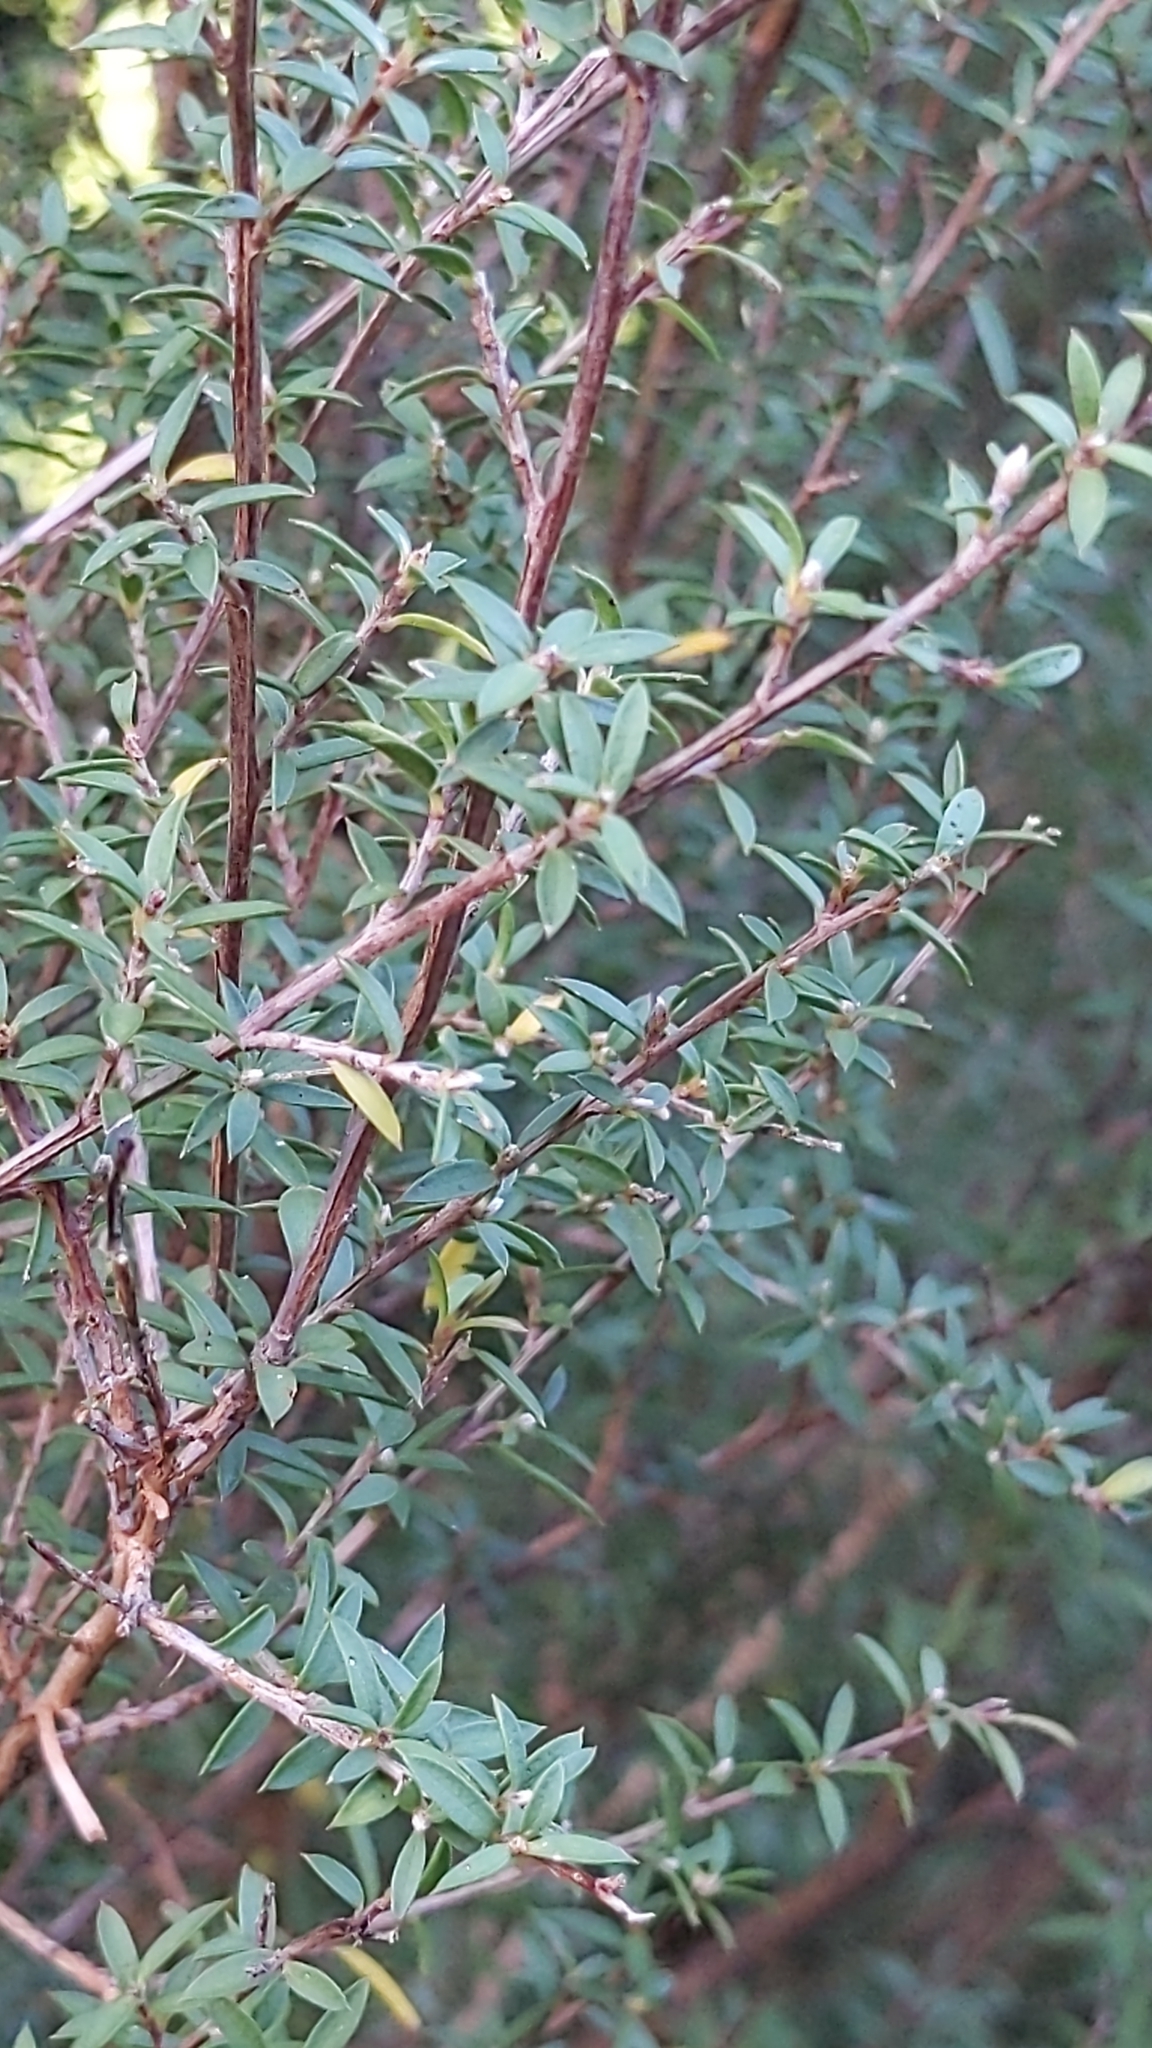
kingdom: Plantae
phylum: Tracheophyta
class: Magnoliopsida
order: Myrtales
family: Myrtaceae
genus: Leptospermum
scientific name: Leptospermum scoparium
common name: Broom tea-tree
